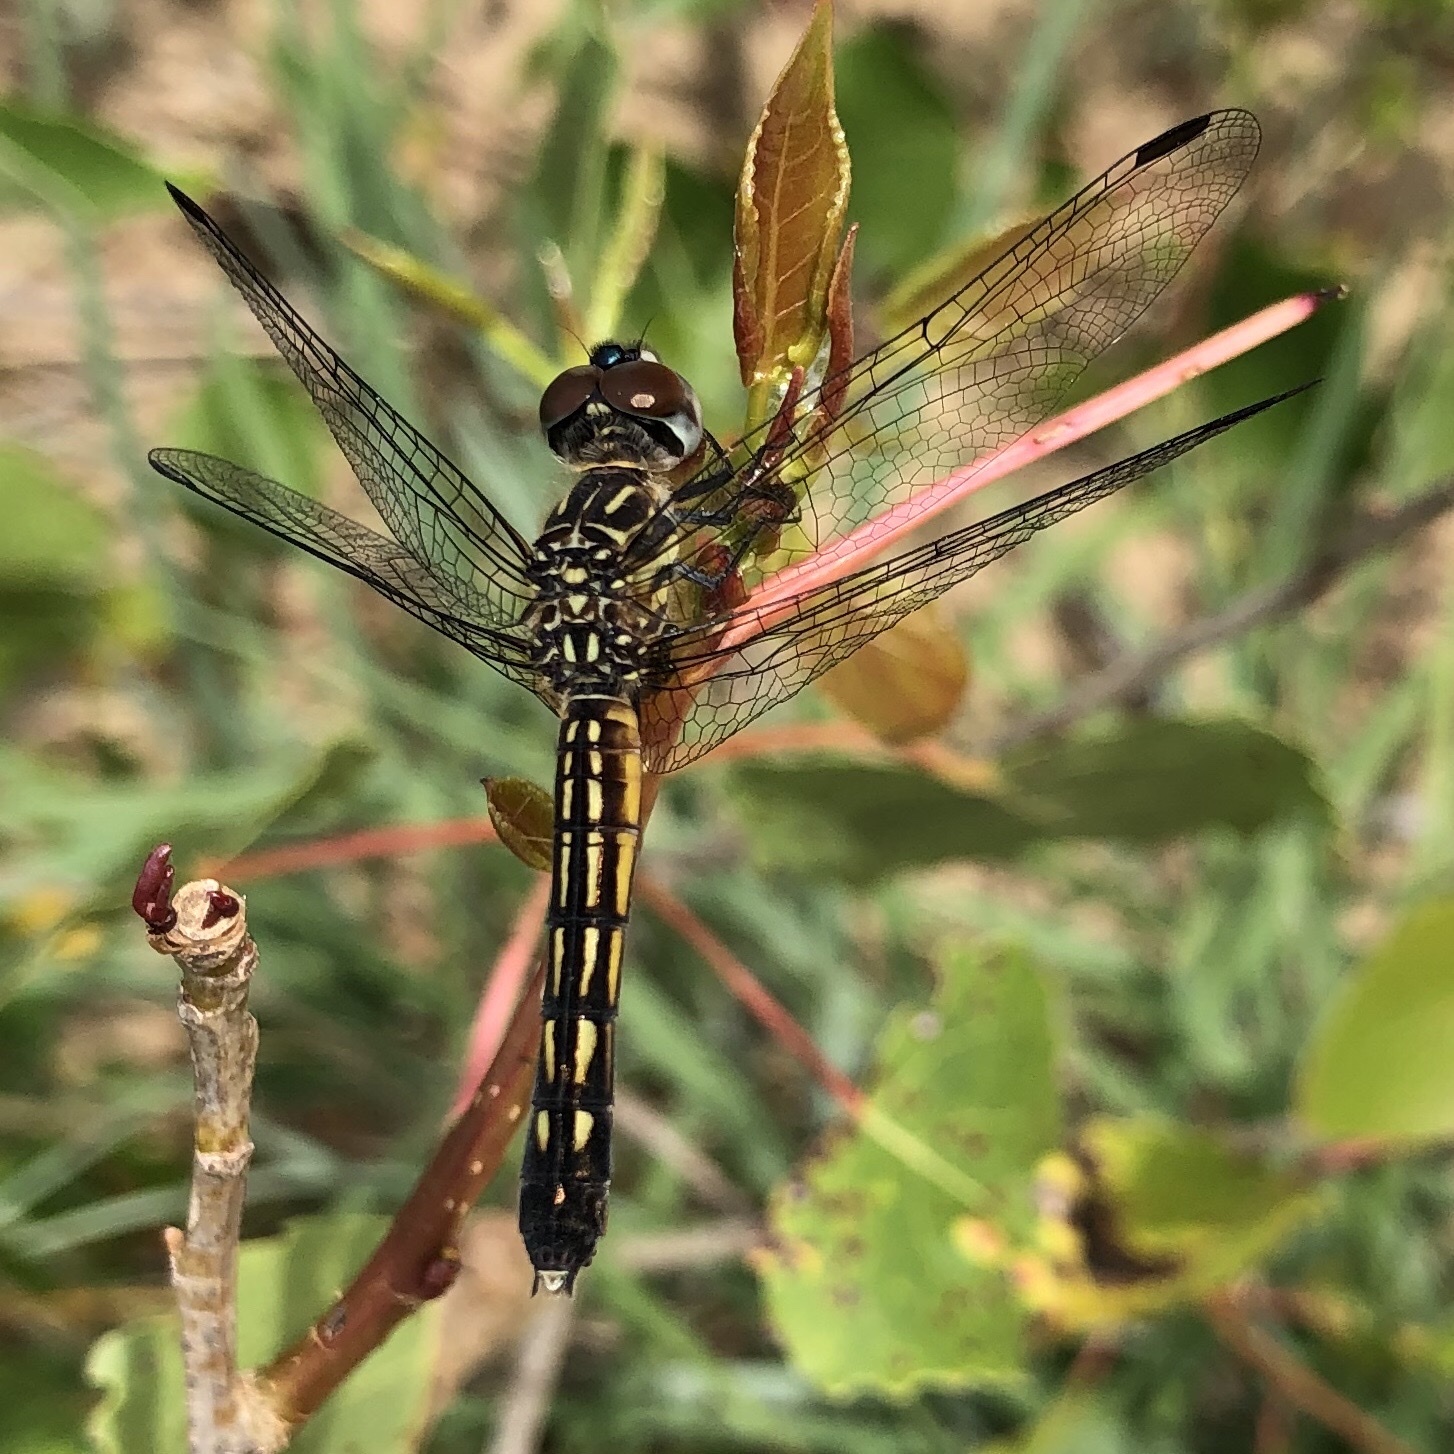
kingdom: Animalia
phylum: Arthropoda
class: Insecta
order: Odonata
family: Libellulidae
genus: Pachydiplax
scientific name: Pachydiplax longipennis
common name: Blue dasher
